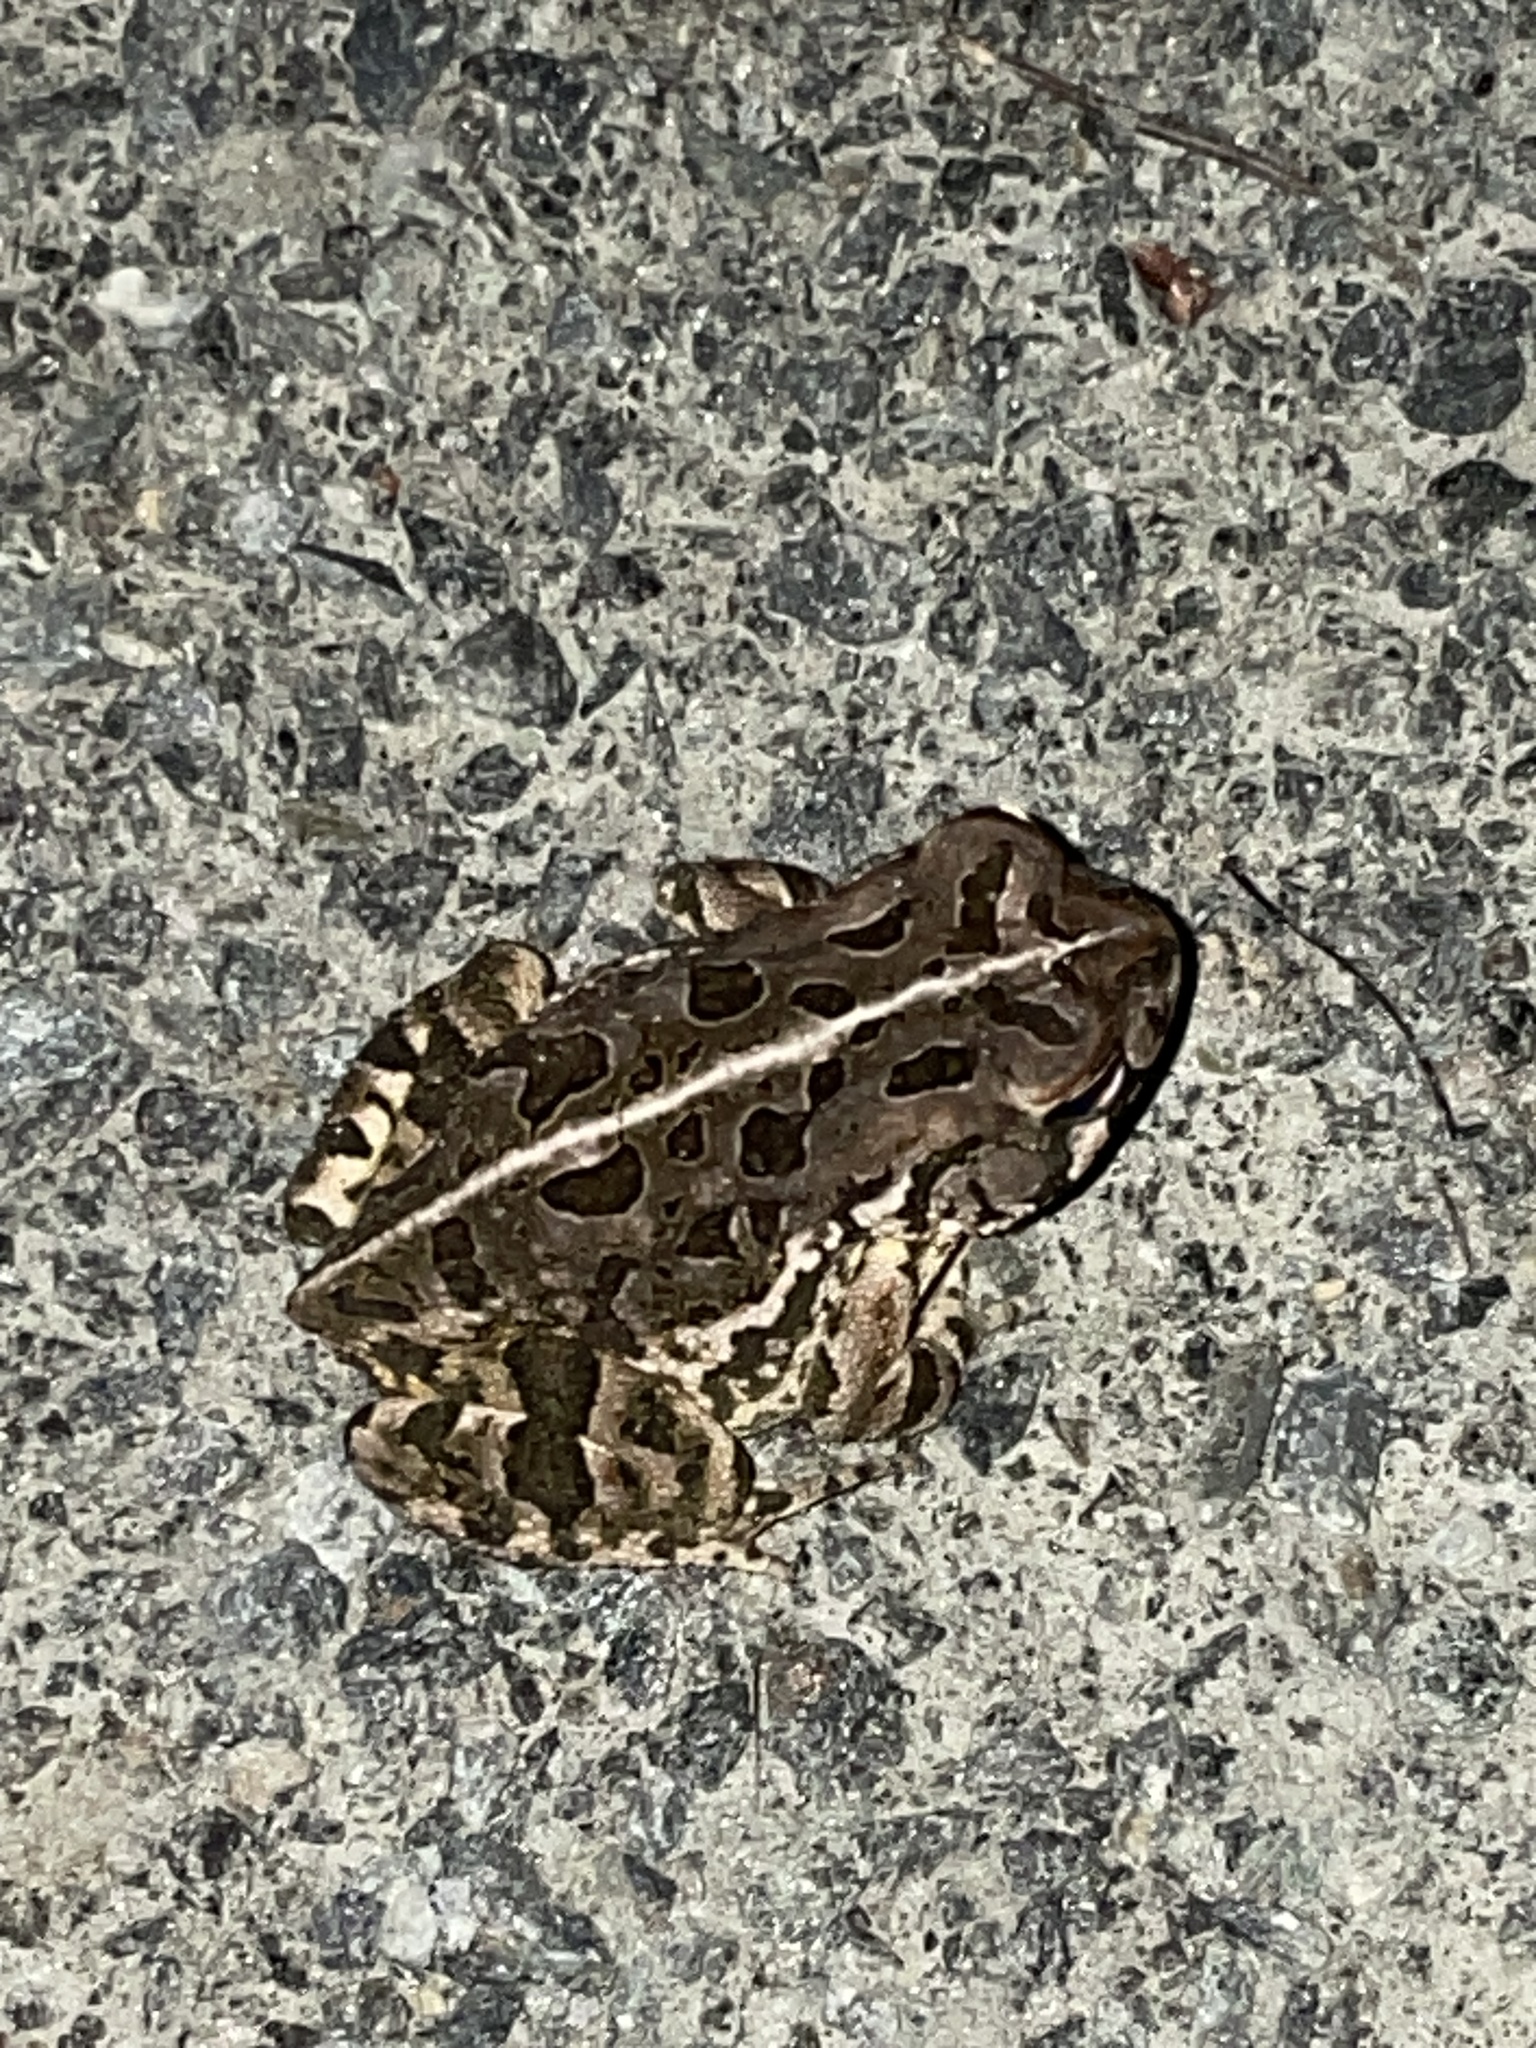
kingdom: Animalia
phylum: Chordata
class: Amphibia
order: Anura
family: Bufonidae
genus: Anaxyrus
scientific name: Anaxyrus fowleri
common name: Fowler's toad
